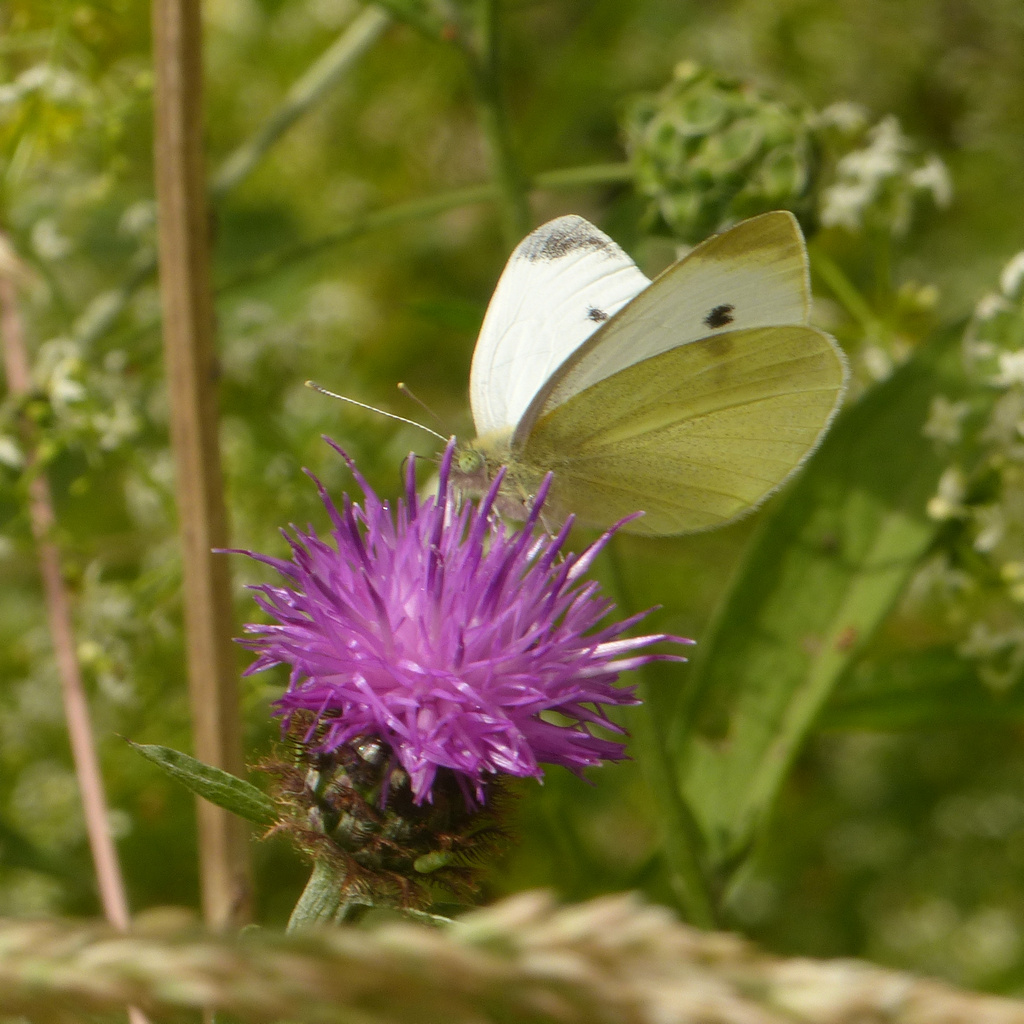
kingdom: Animalia
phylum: Arthropoda
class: Insecta
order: Lepidoptera
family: Pieridae
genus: Pieris
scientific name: Pieris rapae
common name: Small white
